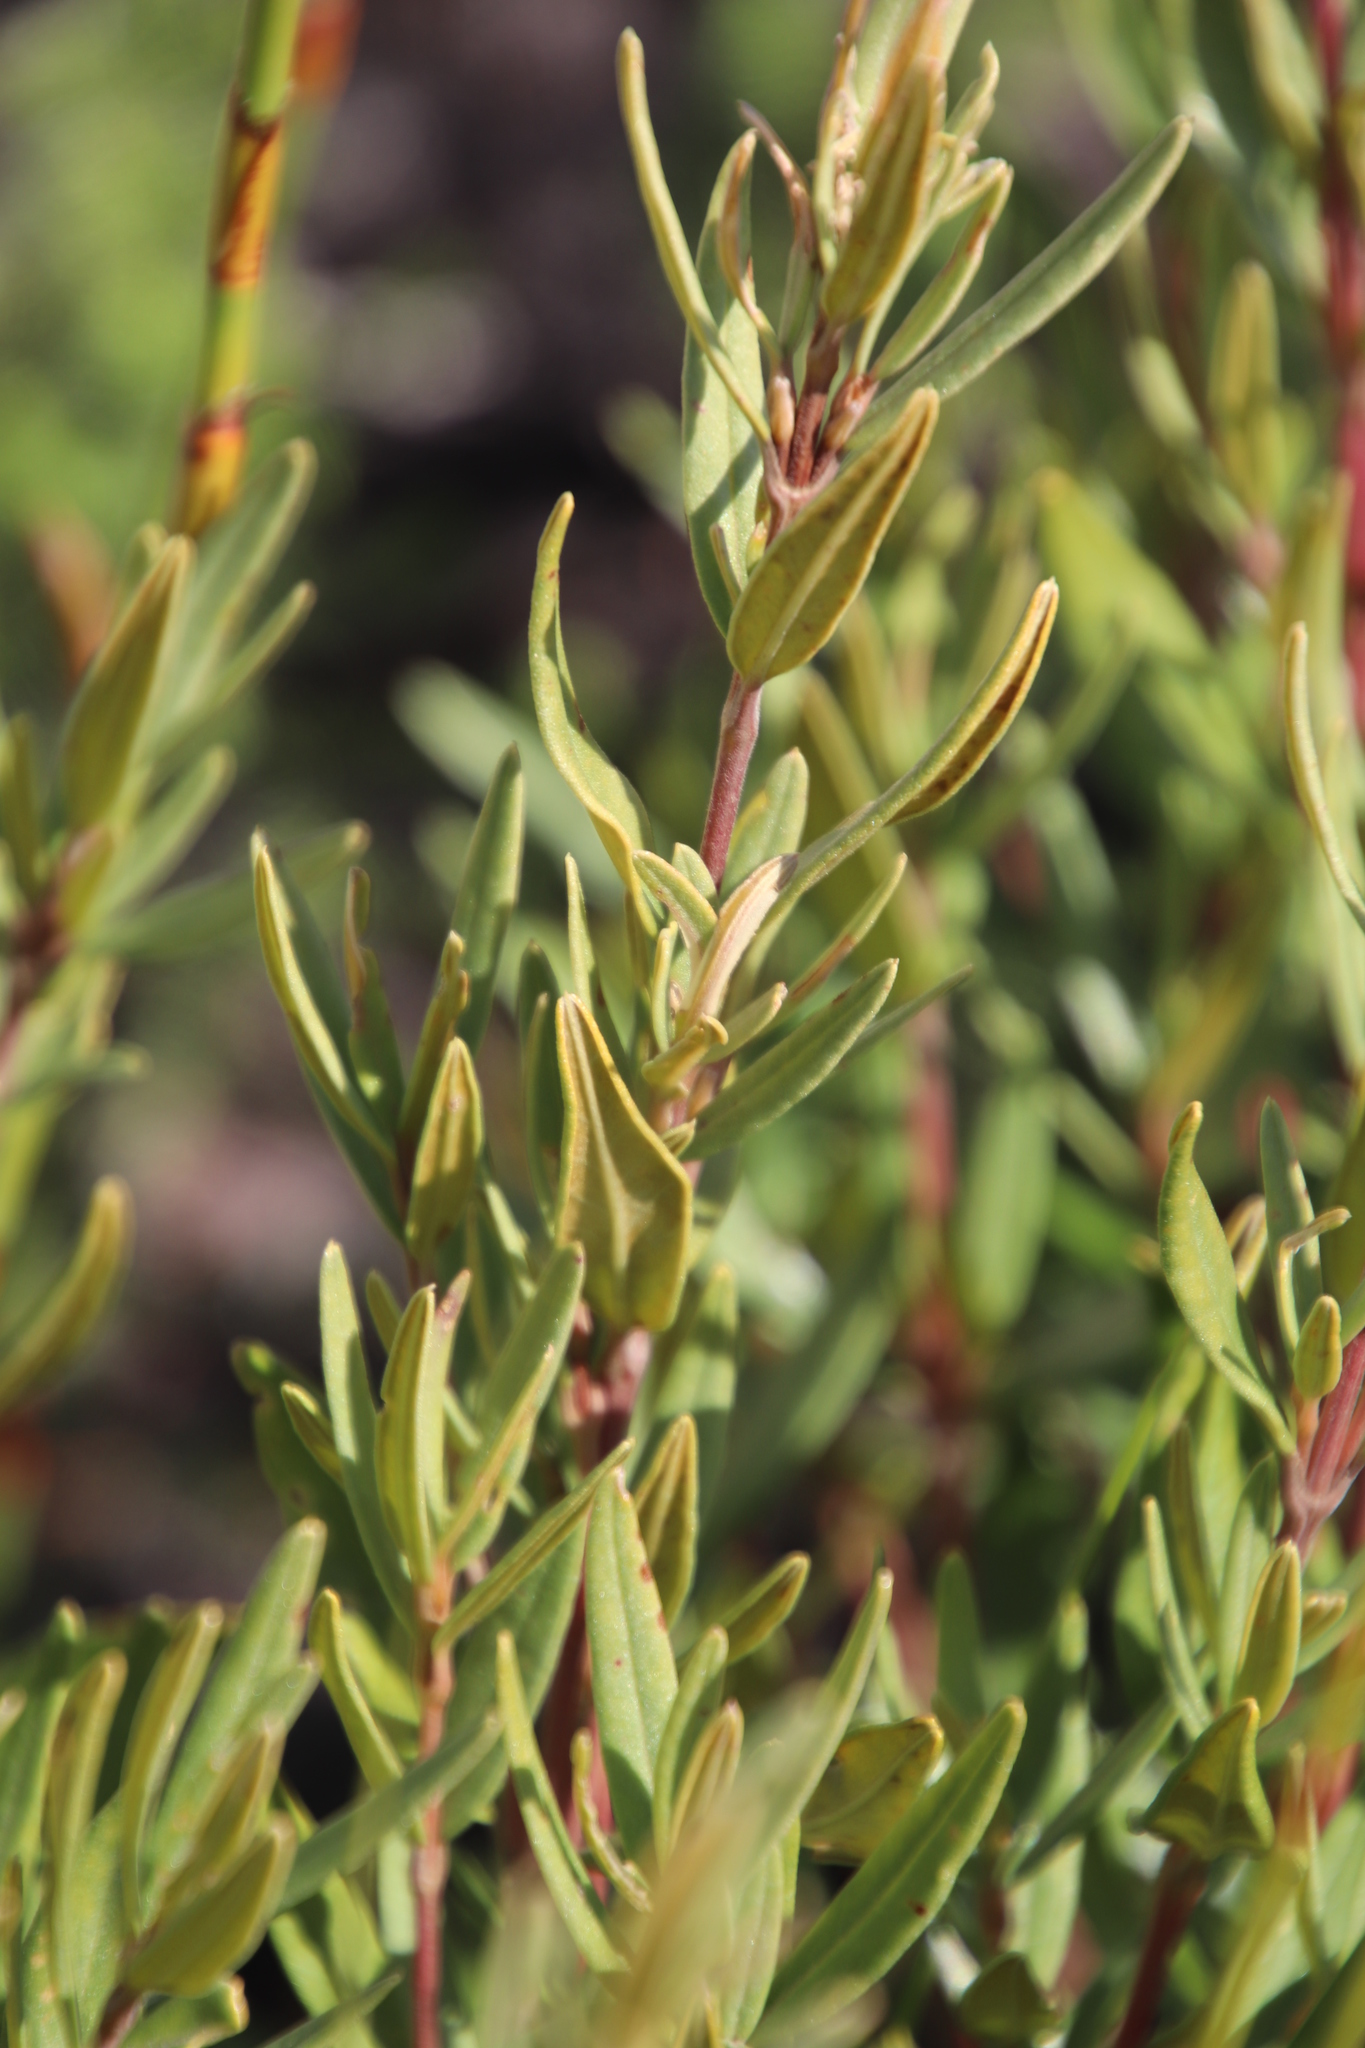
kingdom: Plantae
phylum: Tracheophyta
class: Magnoliopsida
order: Cornales
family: Grubbiaceae
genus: Grubbia
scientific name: Grubbia tomentosa
